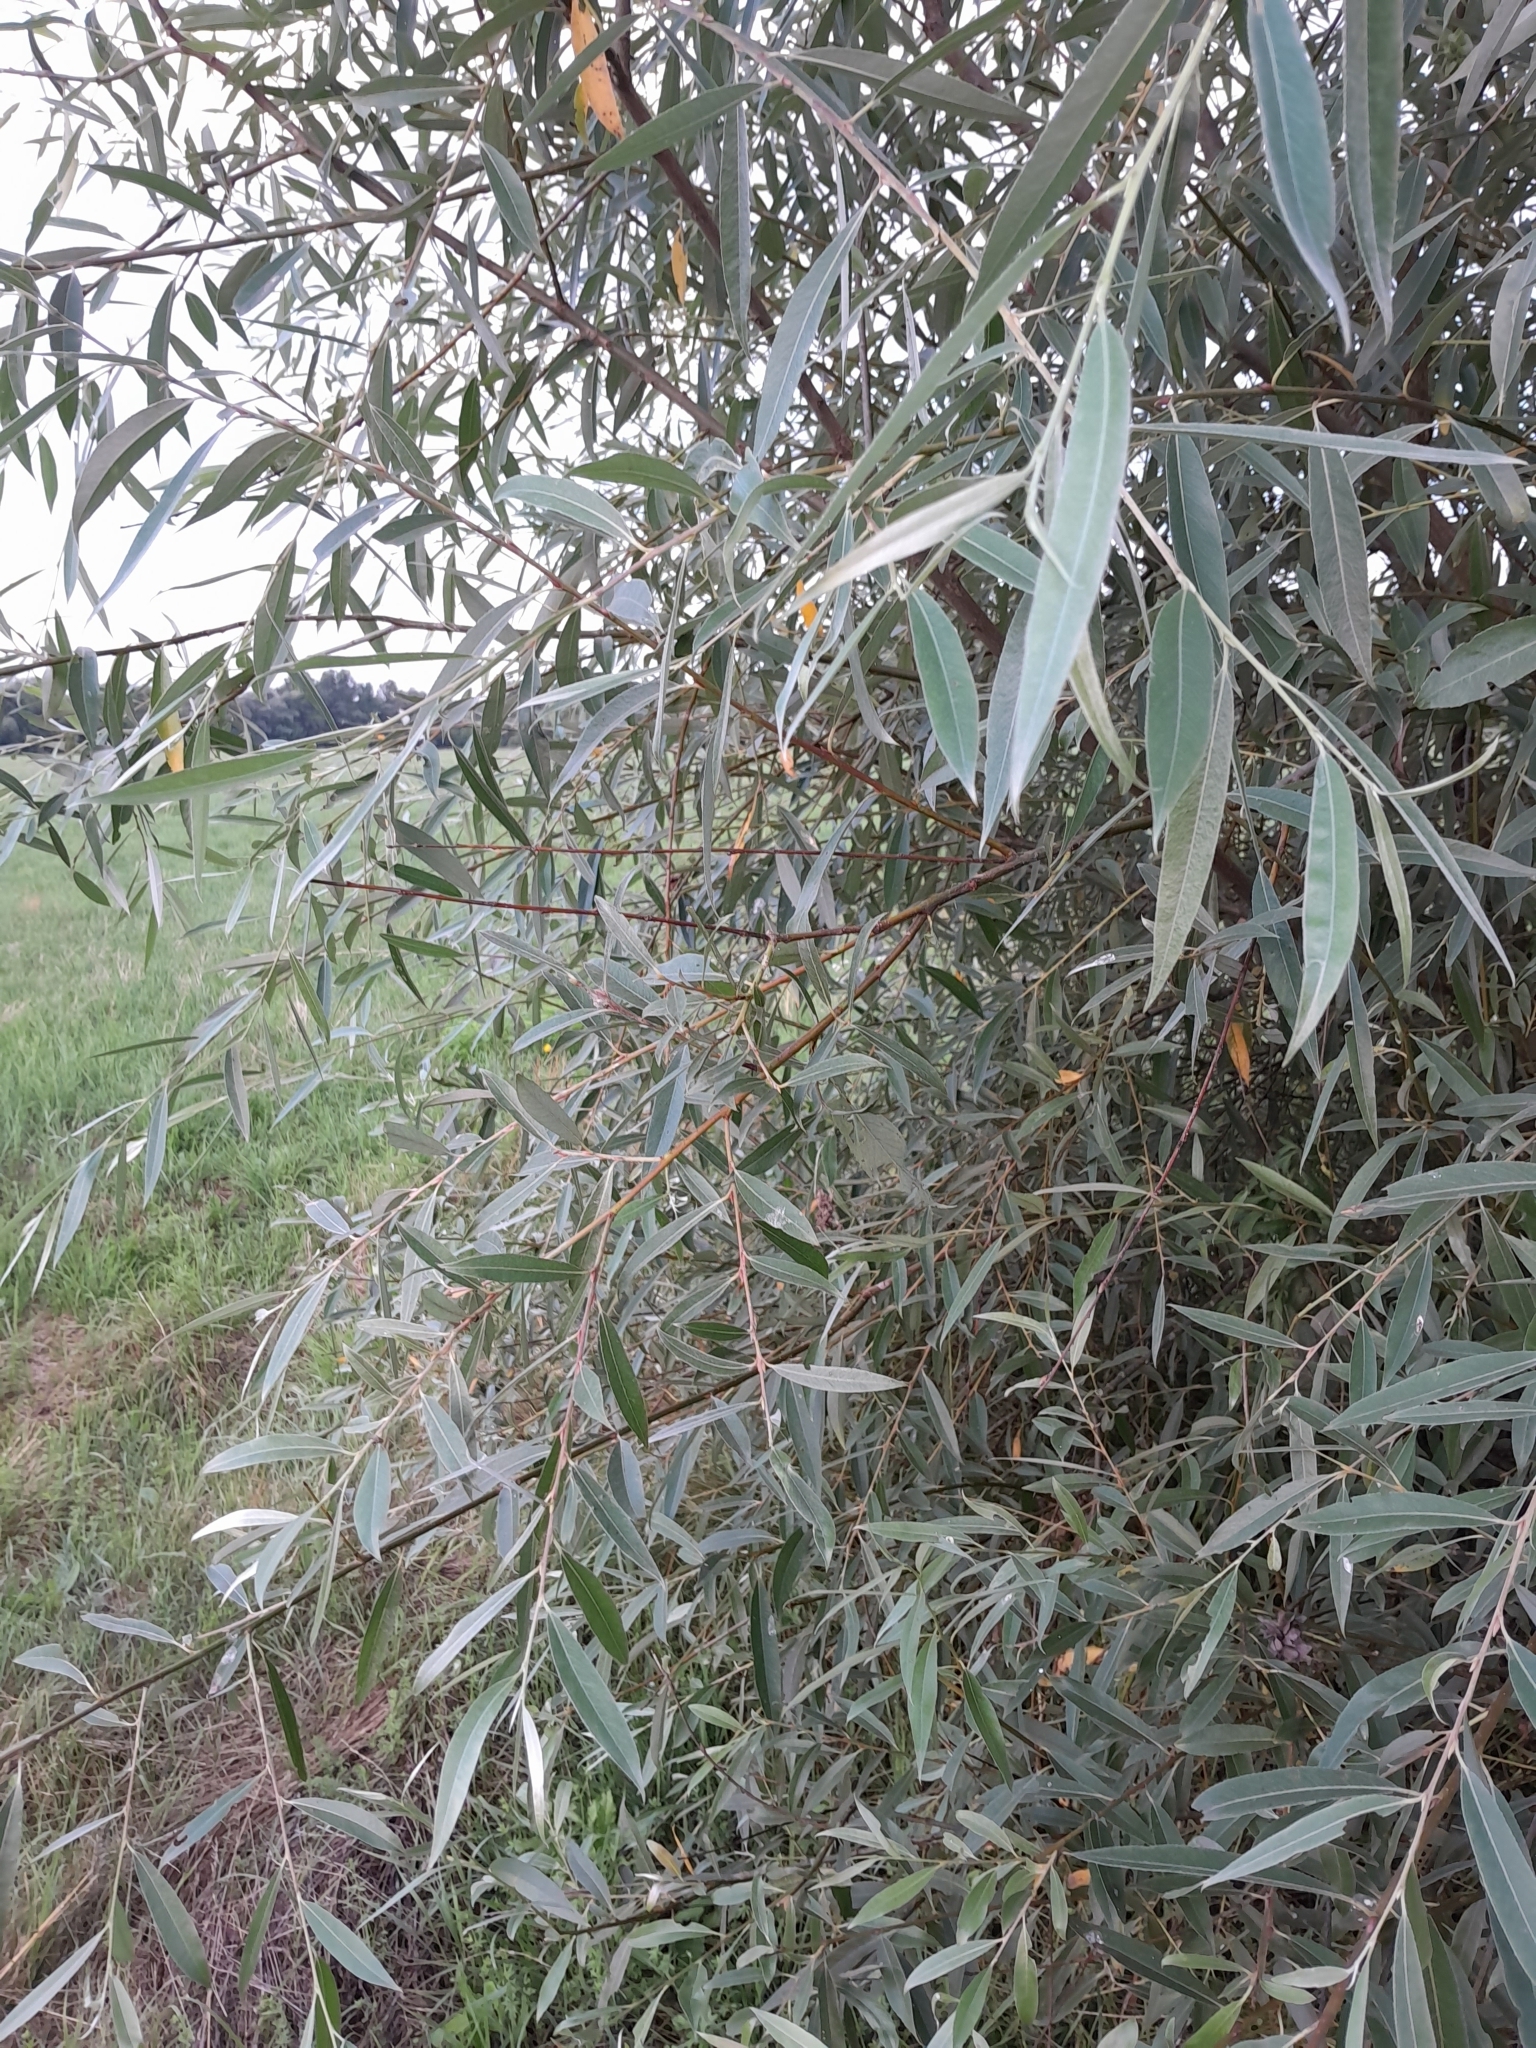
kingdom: Plantae
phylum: Tracheophyta
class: Magnoliopsida
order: Malpighiales
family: Salicaceae
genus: Salix
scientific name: Salix alba
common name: White willow
